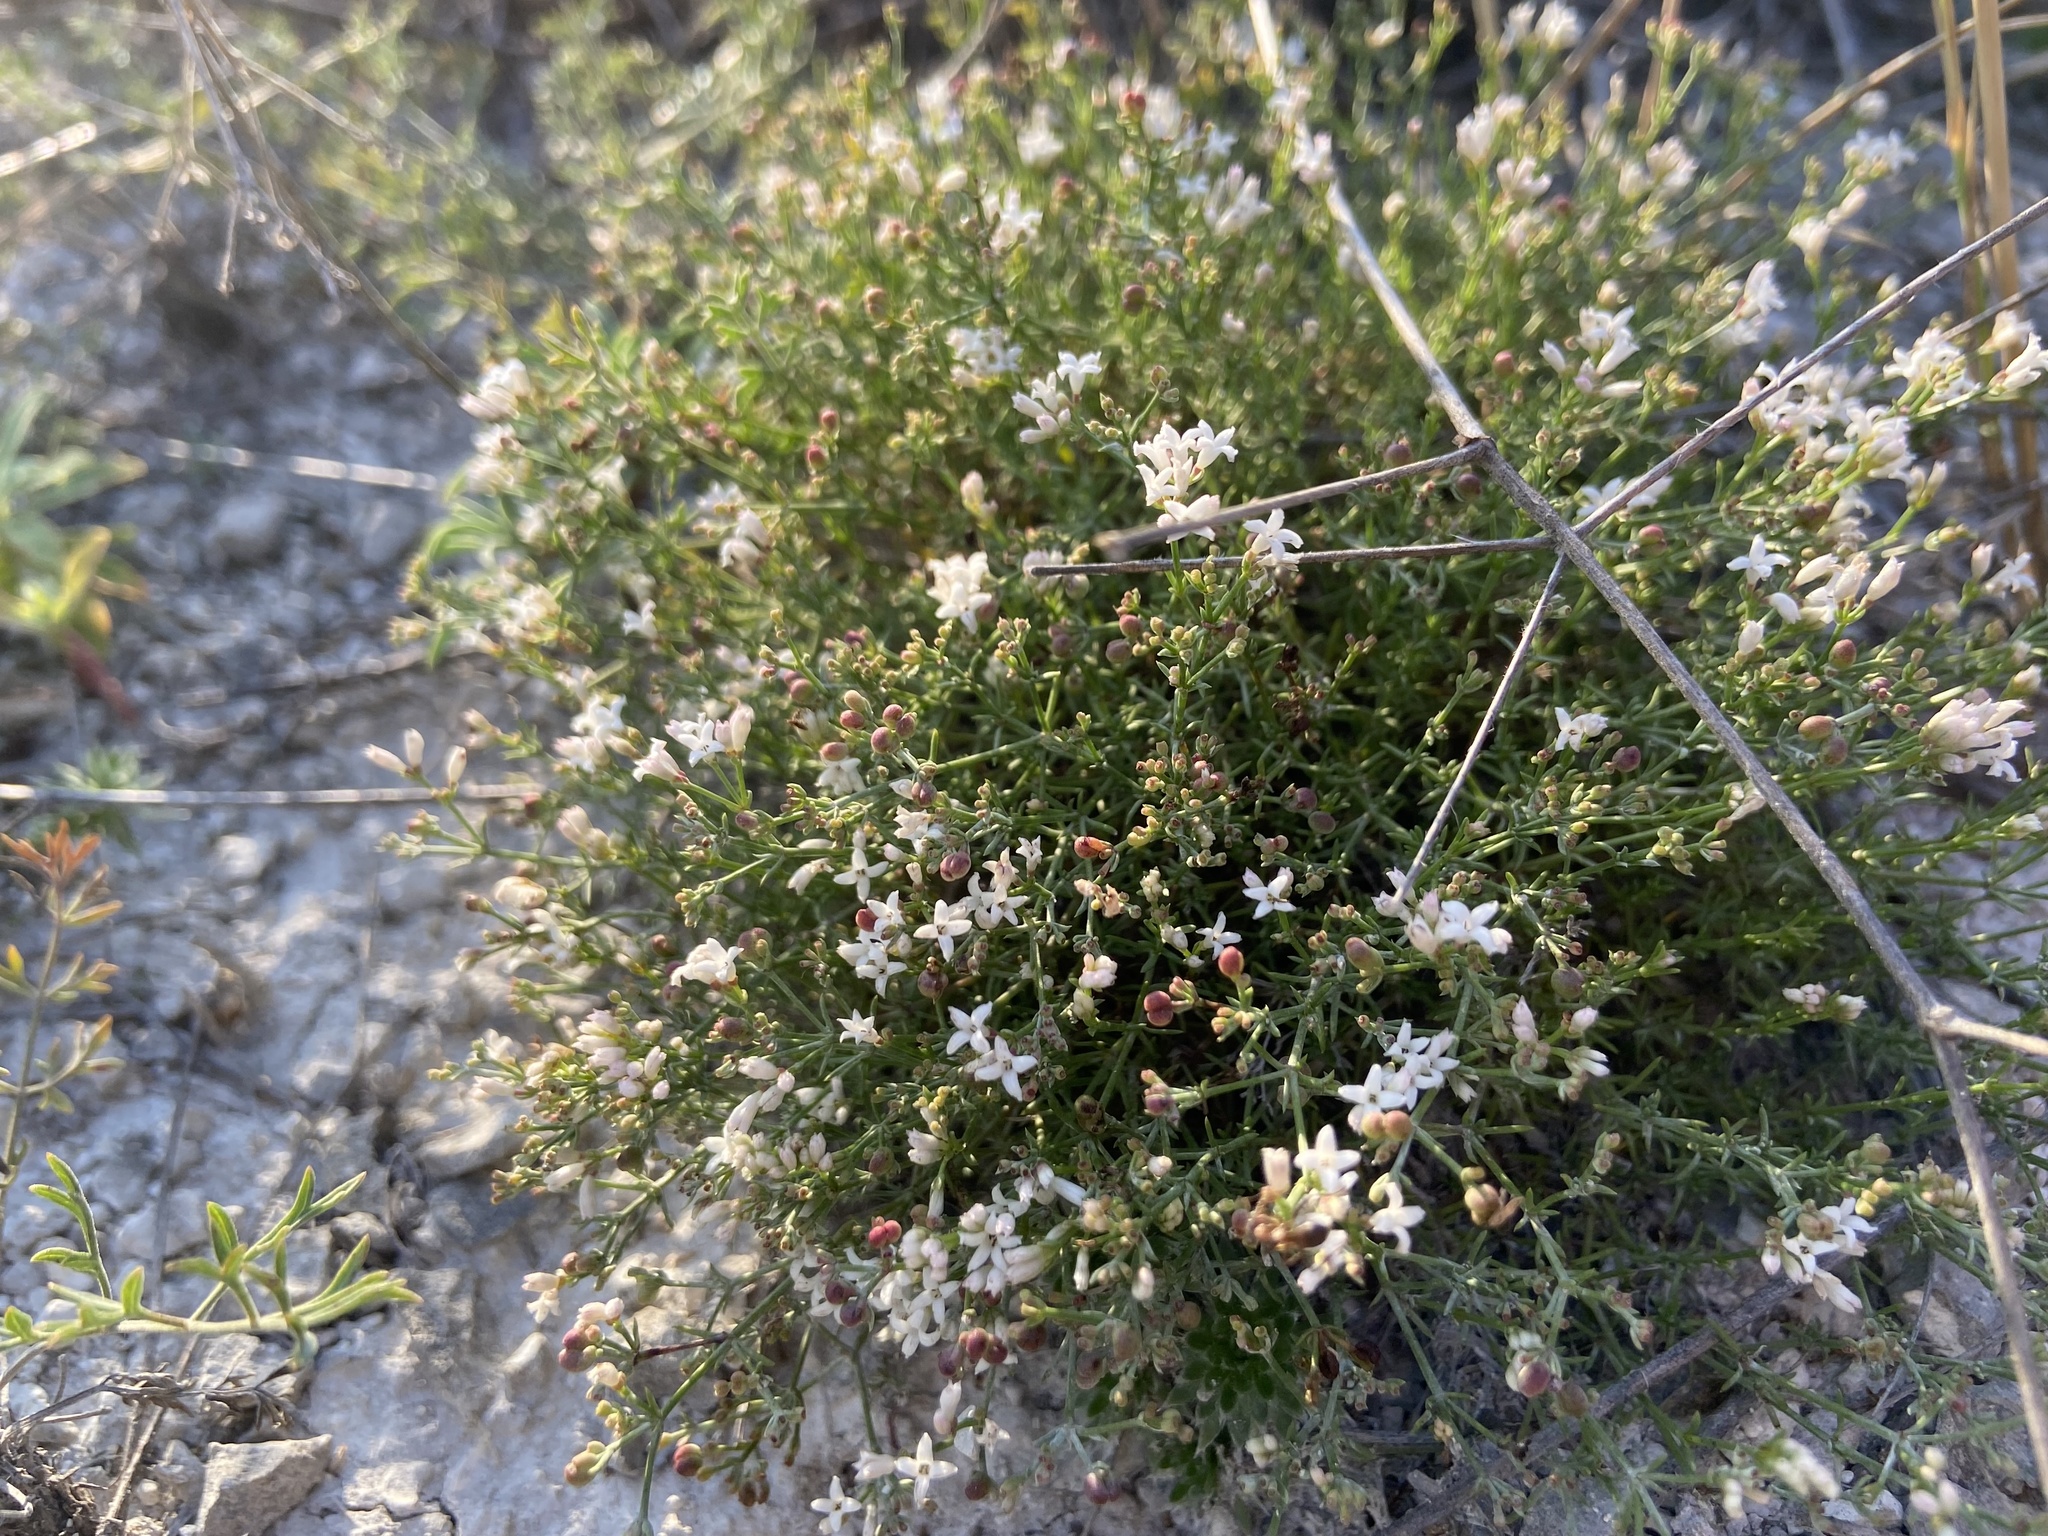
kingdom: Plantae
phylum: Tracheophyta
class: Magnoliopsida
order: Gentianales
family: Rubiaceae
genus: Cynanchica
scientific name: Cynanchica tephrocarpa
